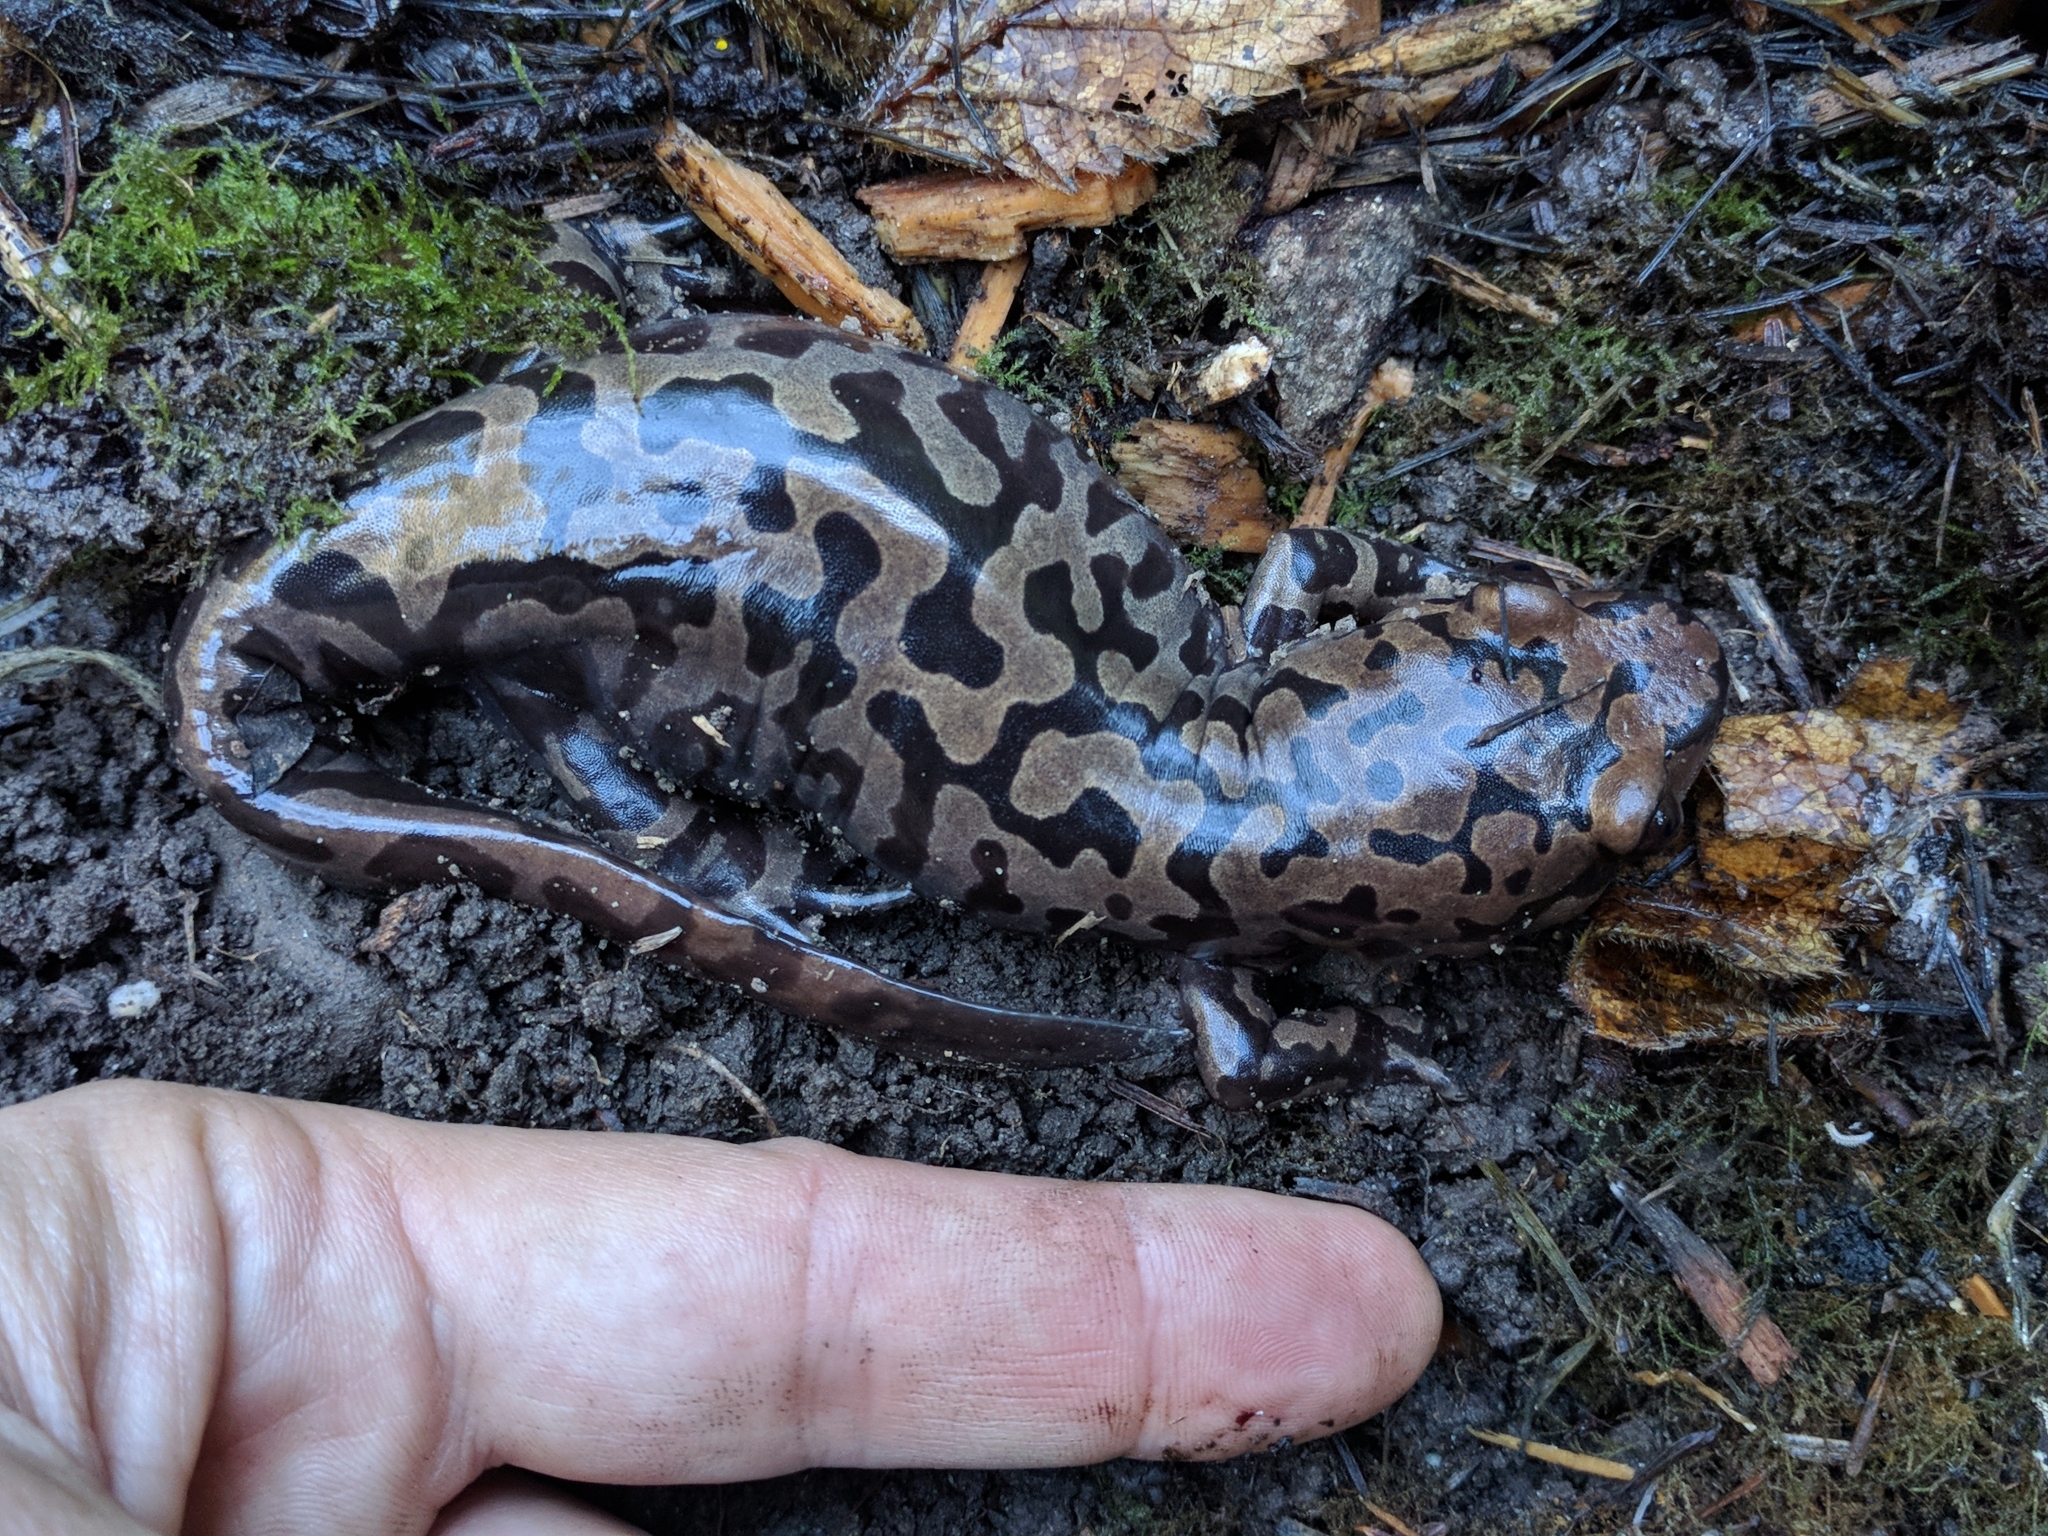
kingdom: Animalia
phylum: Chordata
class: Amphibia
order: Caudata
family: Ambystomatidae
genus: Dicamptodon
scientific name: Dicamptodon tenebrosus
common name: Coastal giant salamander
